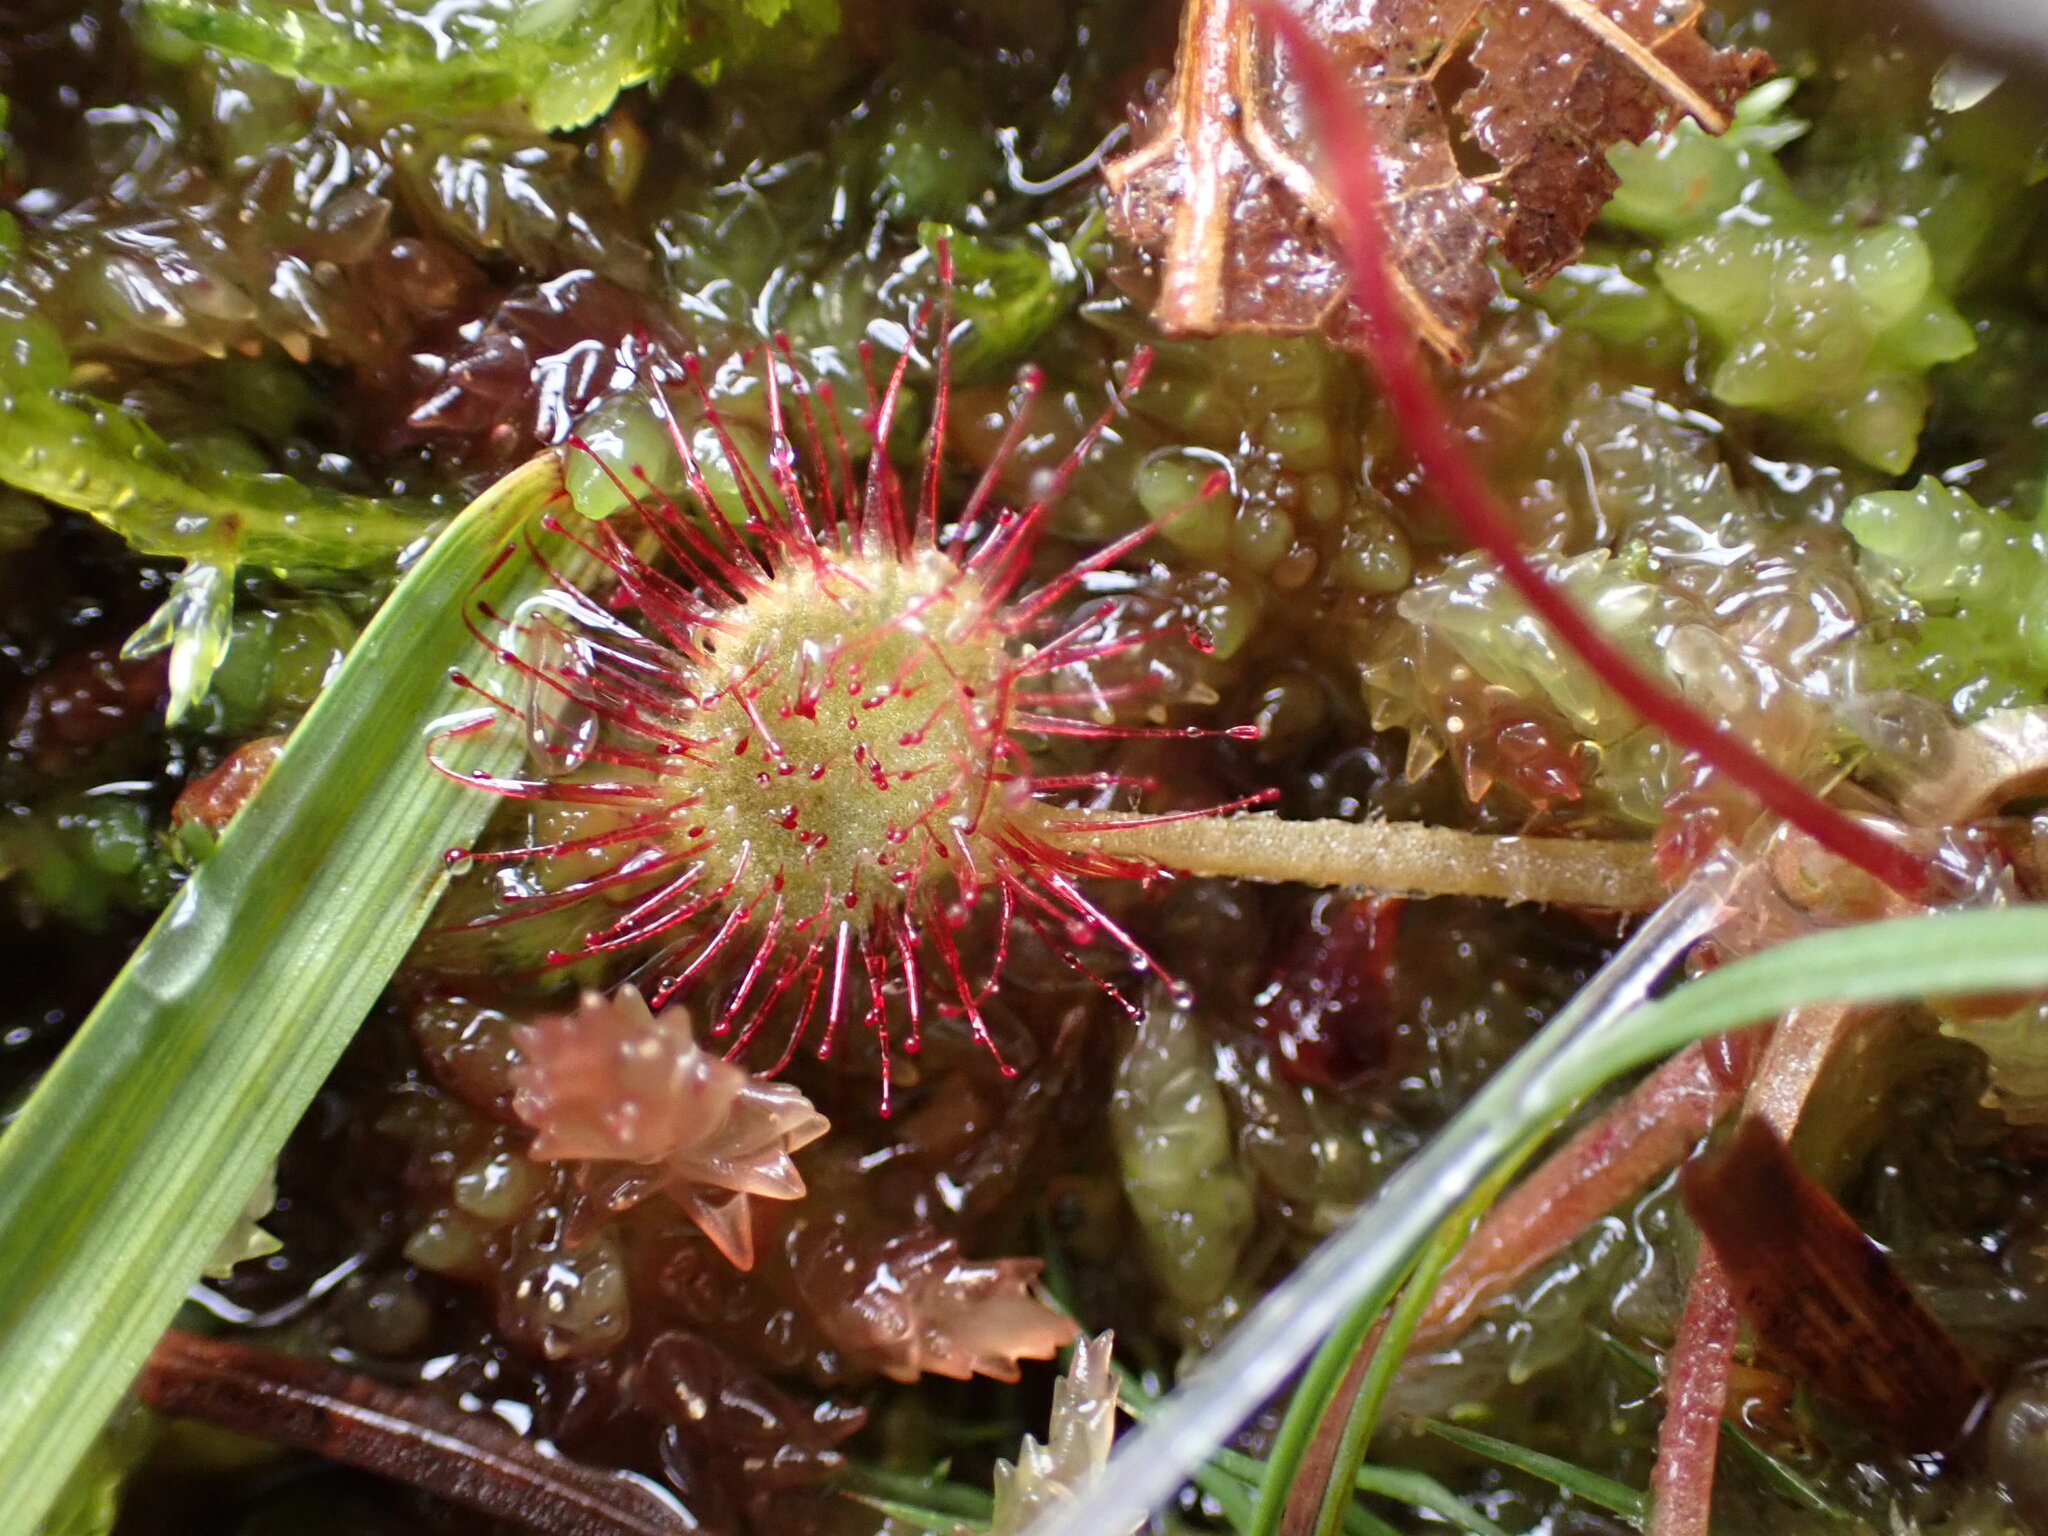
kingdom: Plantae
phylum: Tracheophyta
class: Magnoliopsida
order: Caryophyllales
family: Droseraceae
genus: Drosera
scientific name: Drosera rotundifolia
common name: Round-leaved sundew
